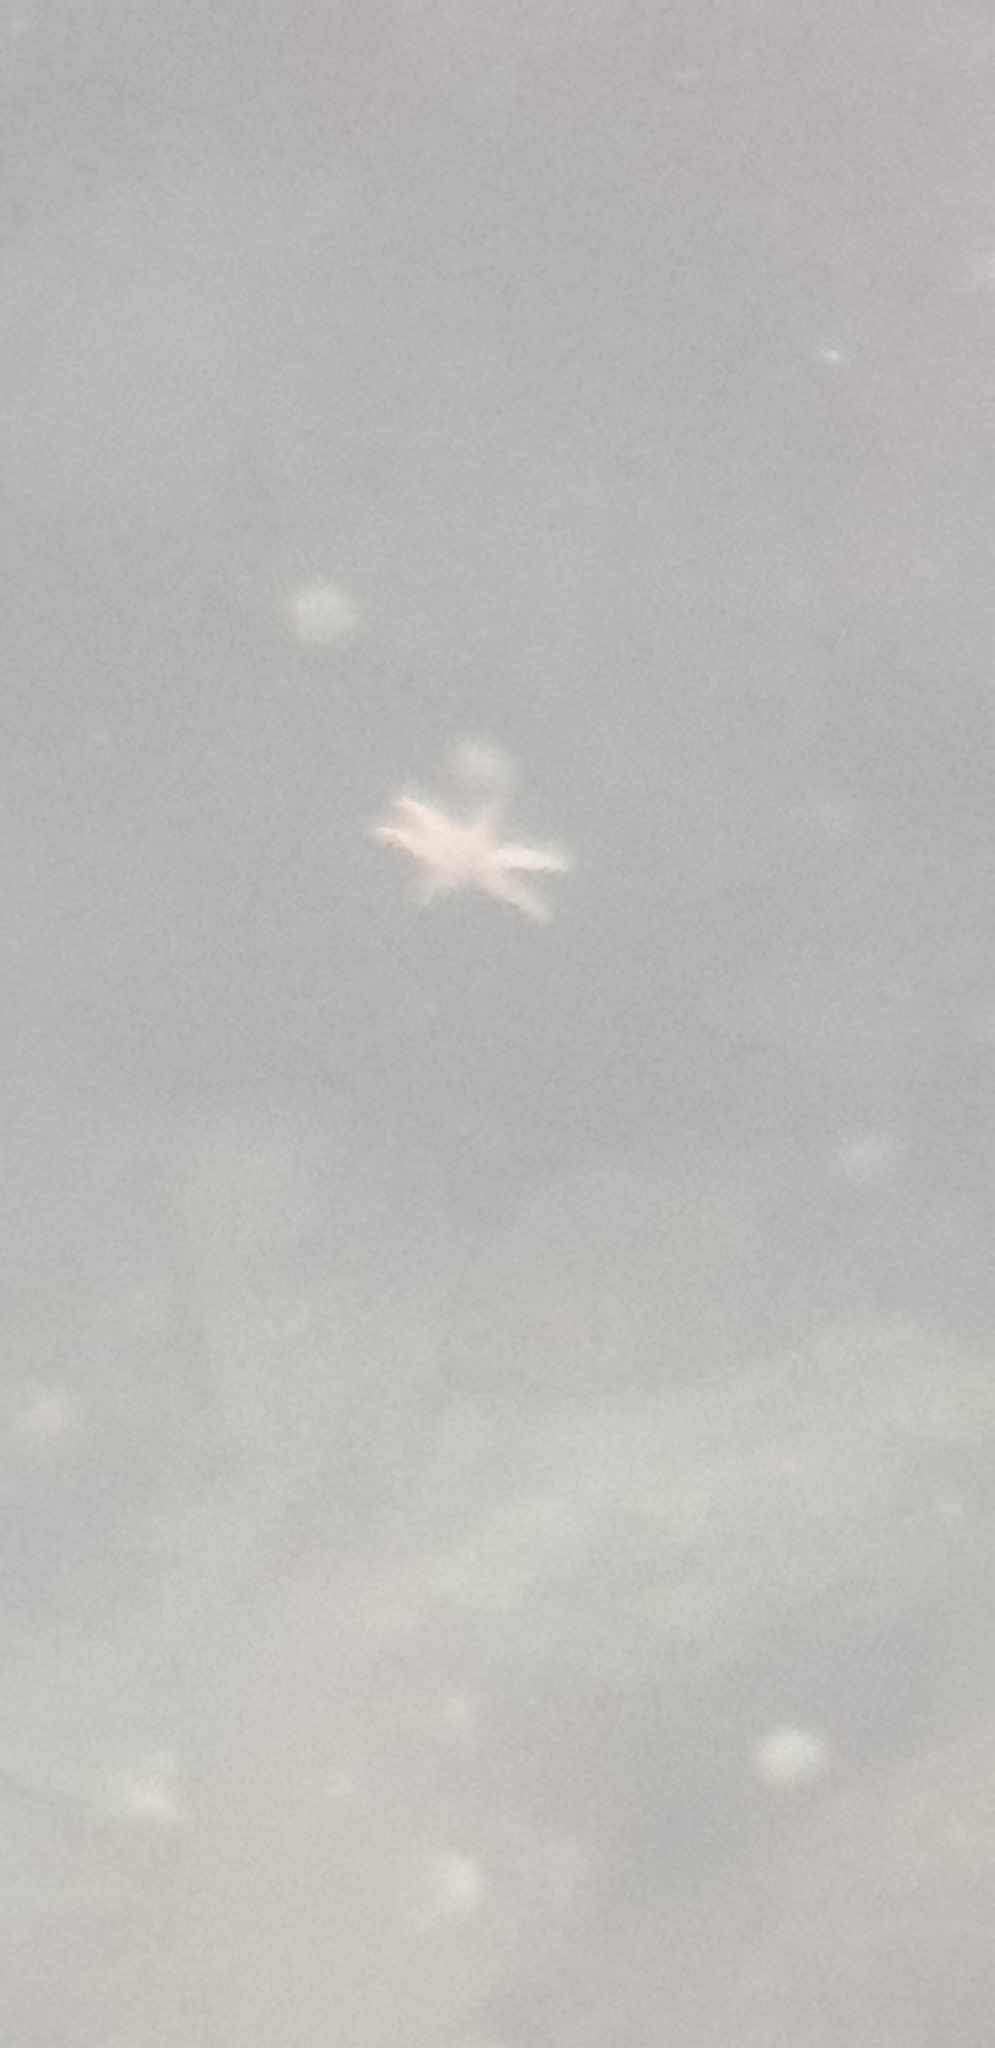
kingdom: Animalia
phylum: Echinodermata
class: Asteroidea
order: Forcipulatida
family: Stichasteridae
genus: Allostichaster
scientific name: Allostichaster insignis
